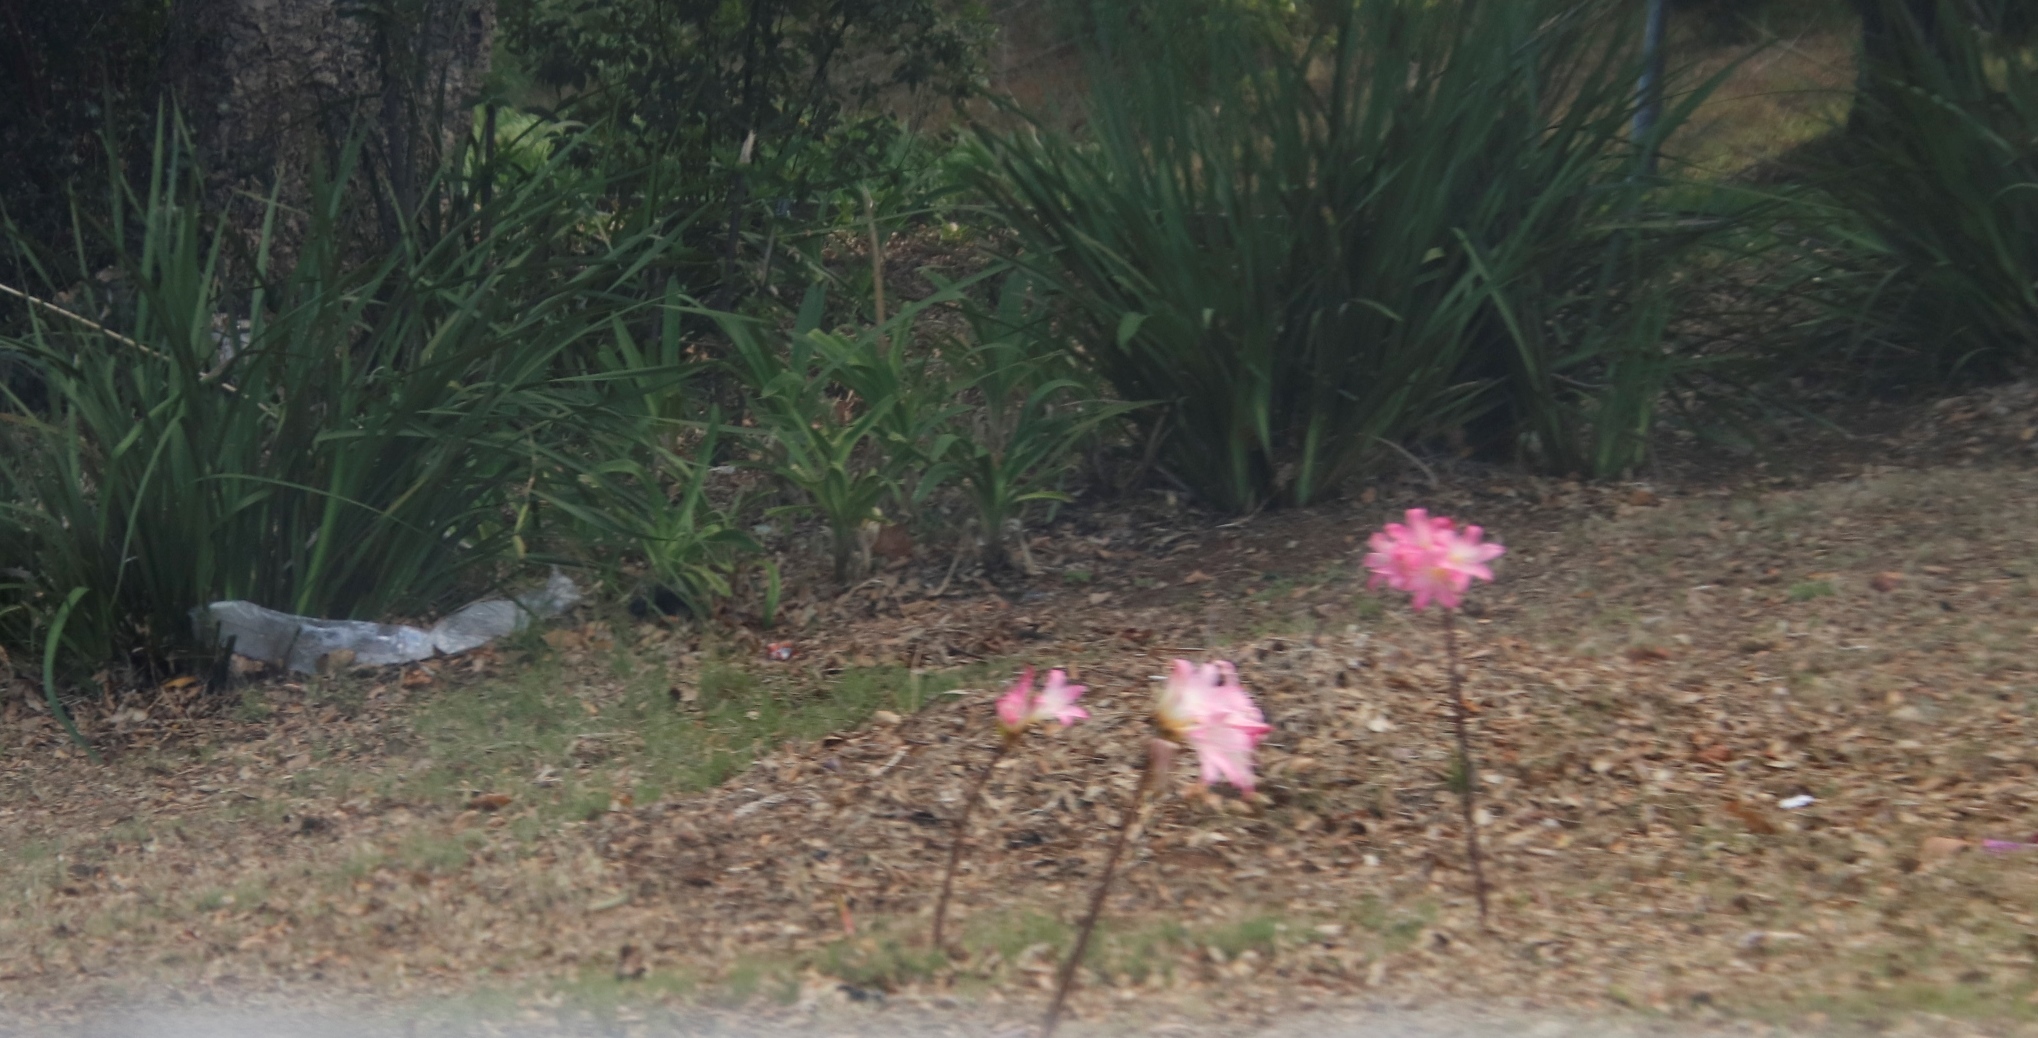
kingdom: Plantae
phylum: Tracheophyta
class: Liliopsida
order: Asparagales
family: Amaryllidaceae
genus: Amaryllis
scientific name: Amaryllis belladonna
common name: Jersey lily
